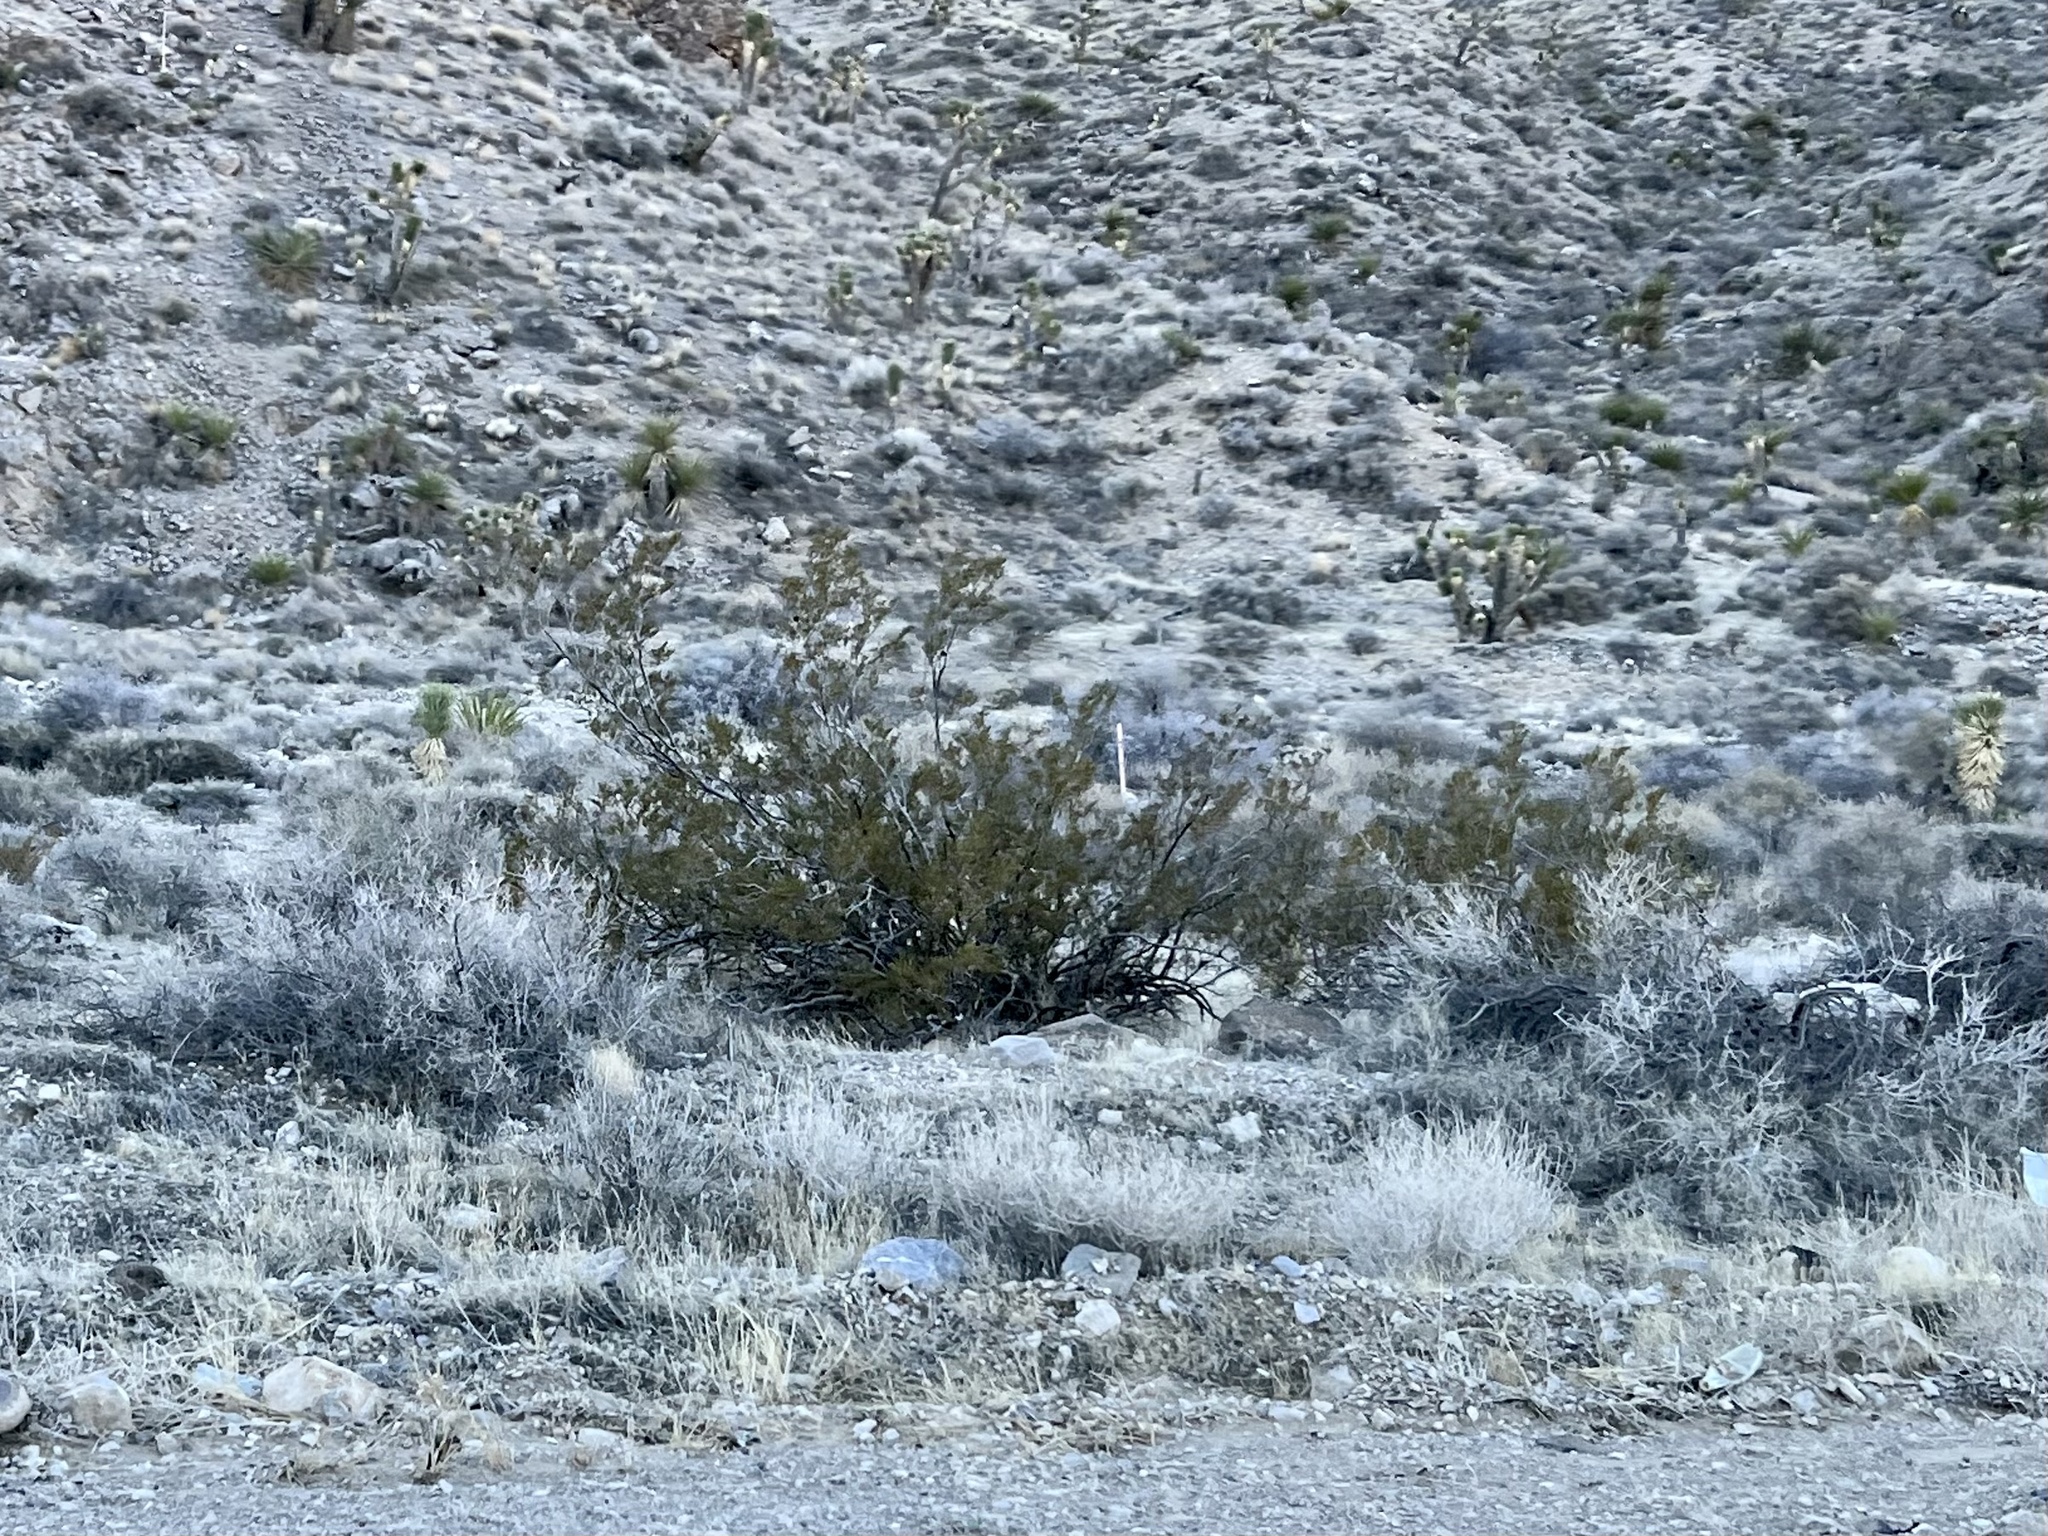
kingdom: Plantae
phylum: Tracheophyta
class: Magnoliopsida
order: Zygophyllales
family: Zygophyllaceae
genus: Larrea
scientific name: Larrea tridentata
